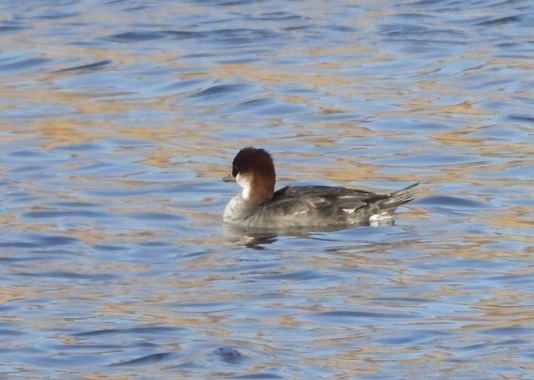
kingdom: Animalia
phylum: Chordata
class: Aves
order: Anseriformes
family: Anatidae
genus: Mergellus
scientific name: Mergellus albellus
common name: Smew
